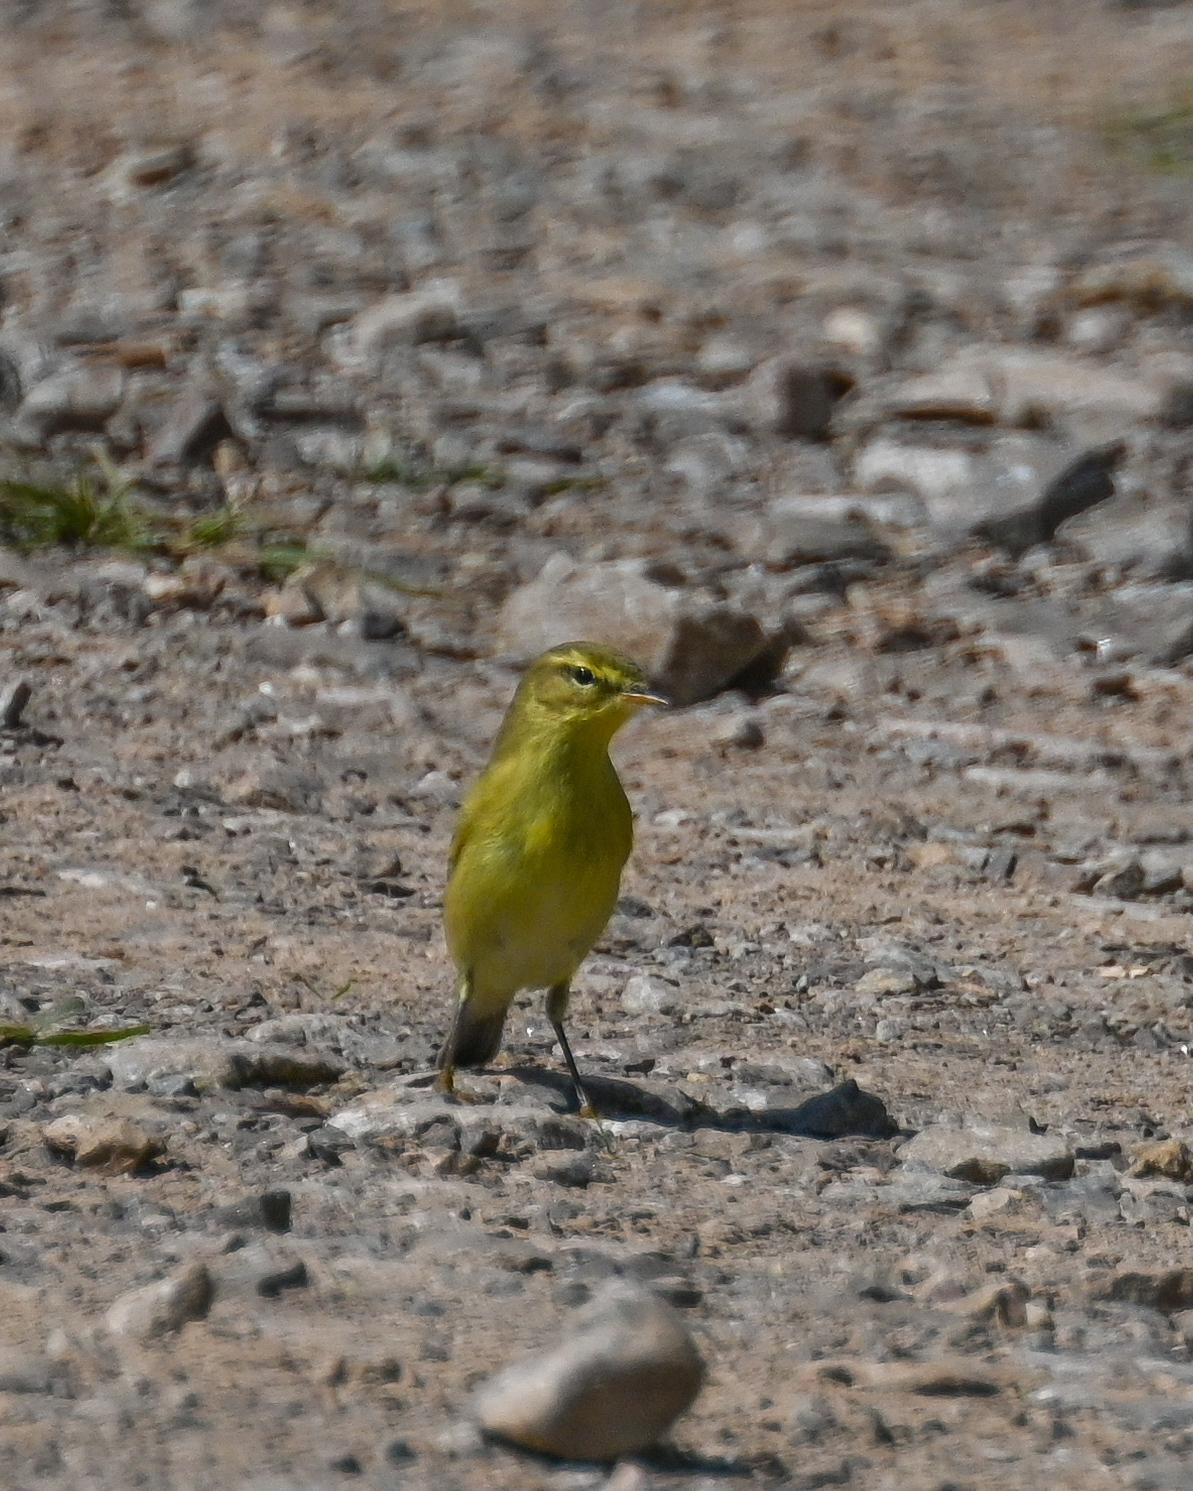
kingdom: Animalia
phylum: Chordata
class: Aves
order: Passeriformes
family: Phylloscopidae
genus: Phylloscopus
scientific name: Phylloscopus trochilus
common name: Willow warbler
